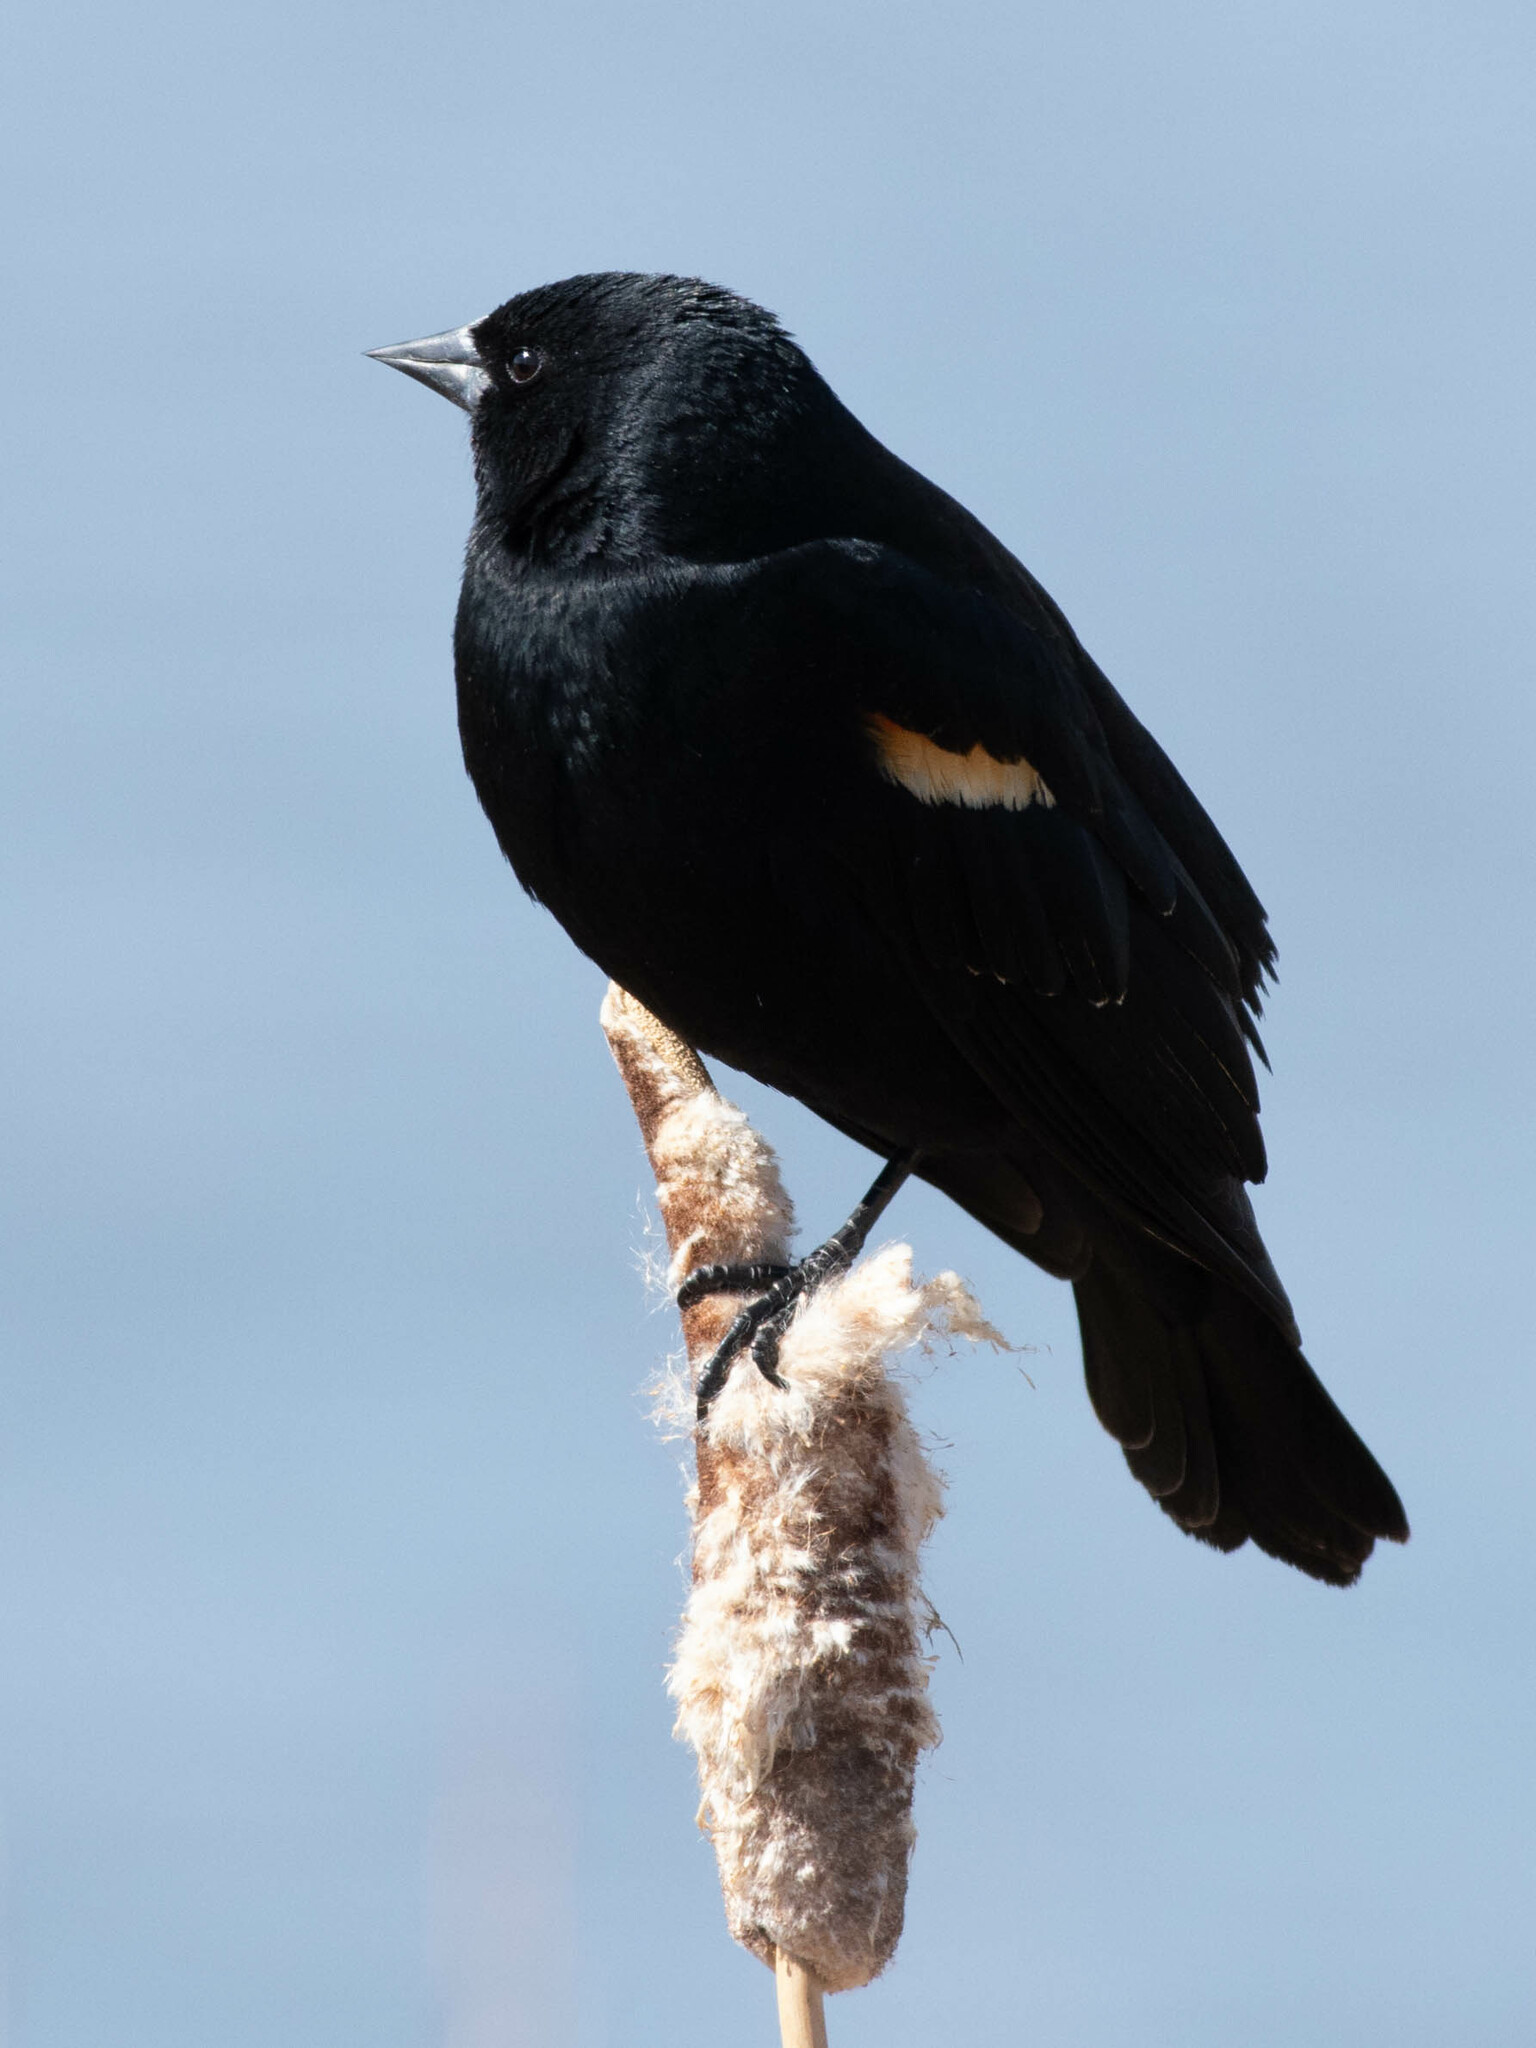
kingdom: Animalia
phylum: Chordata
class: Aves
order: Passeriformes
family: Icteridae
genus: Agelaius
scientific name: Agelaius phoeniceus
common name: Red-winged blackbird
